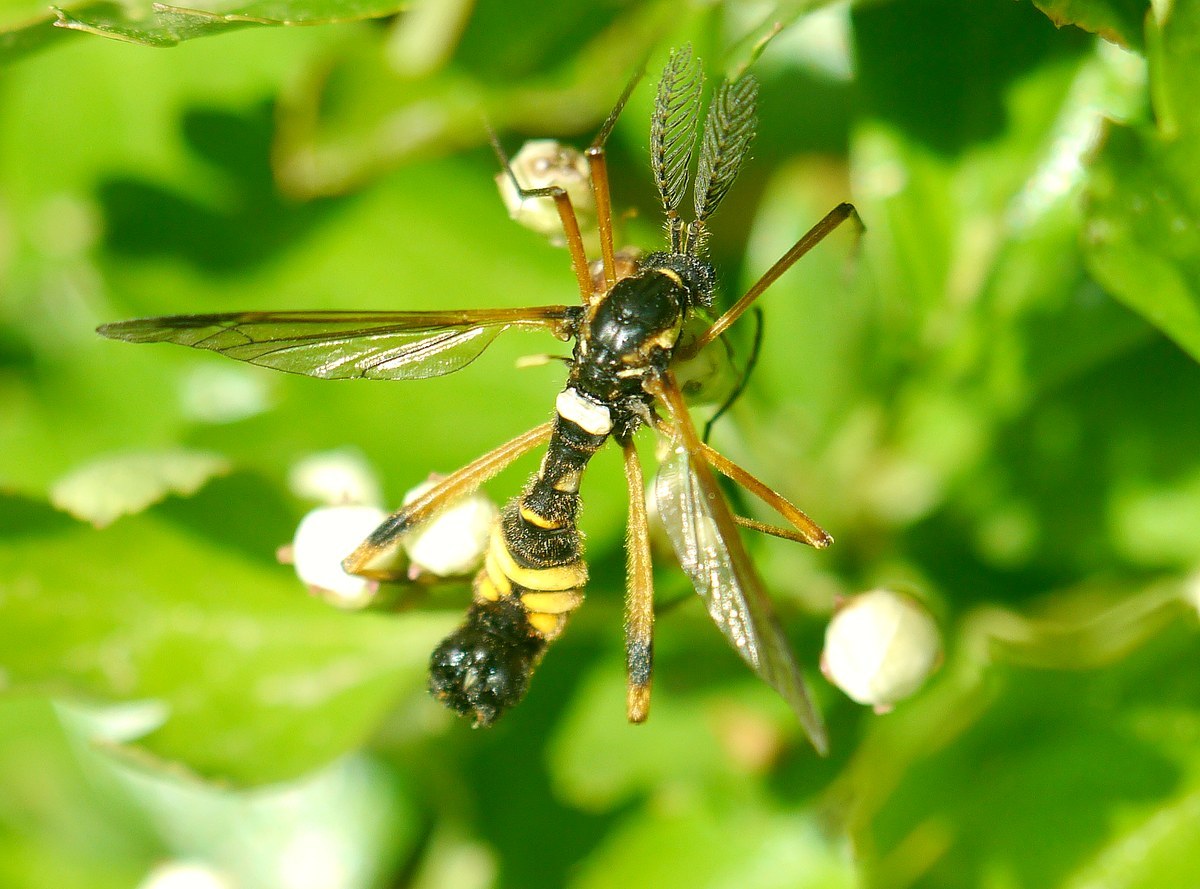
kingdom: Animalia
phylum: Arthropoda
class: Insecta
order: Diptera
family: Tipulidae
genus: Ctenophora
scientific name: Ctenophora festiva
